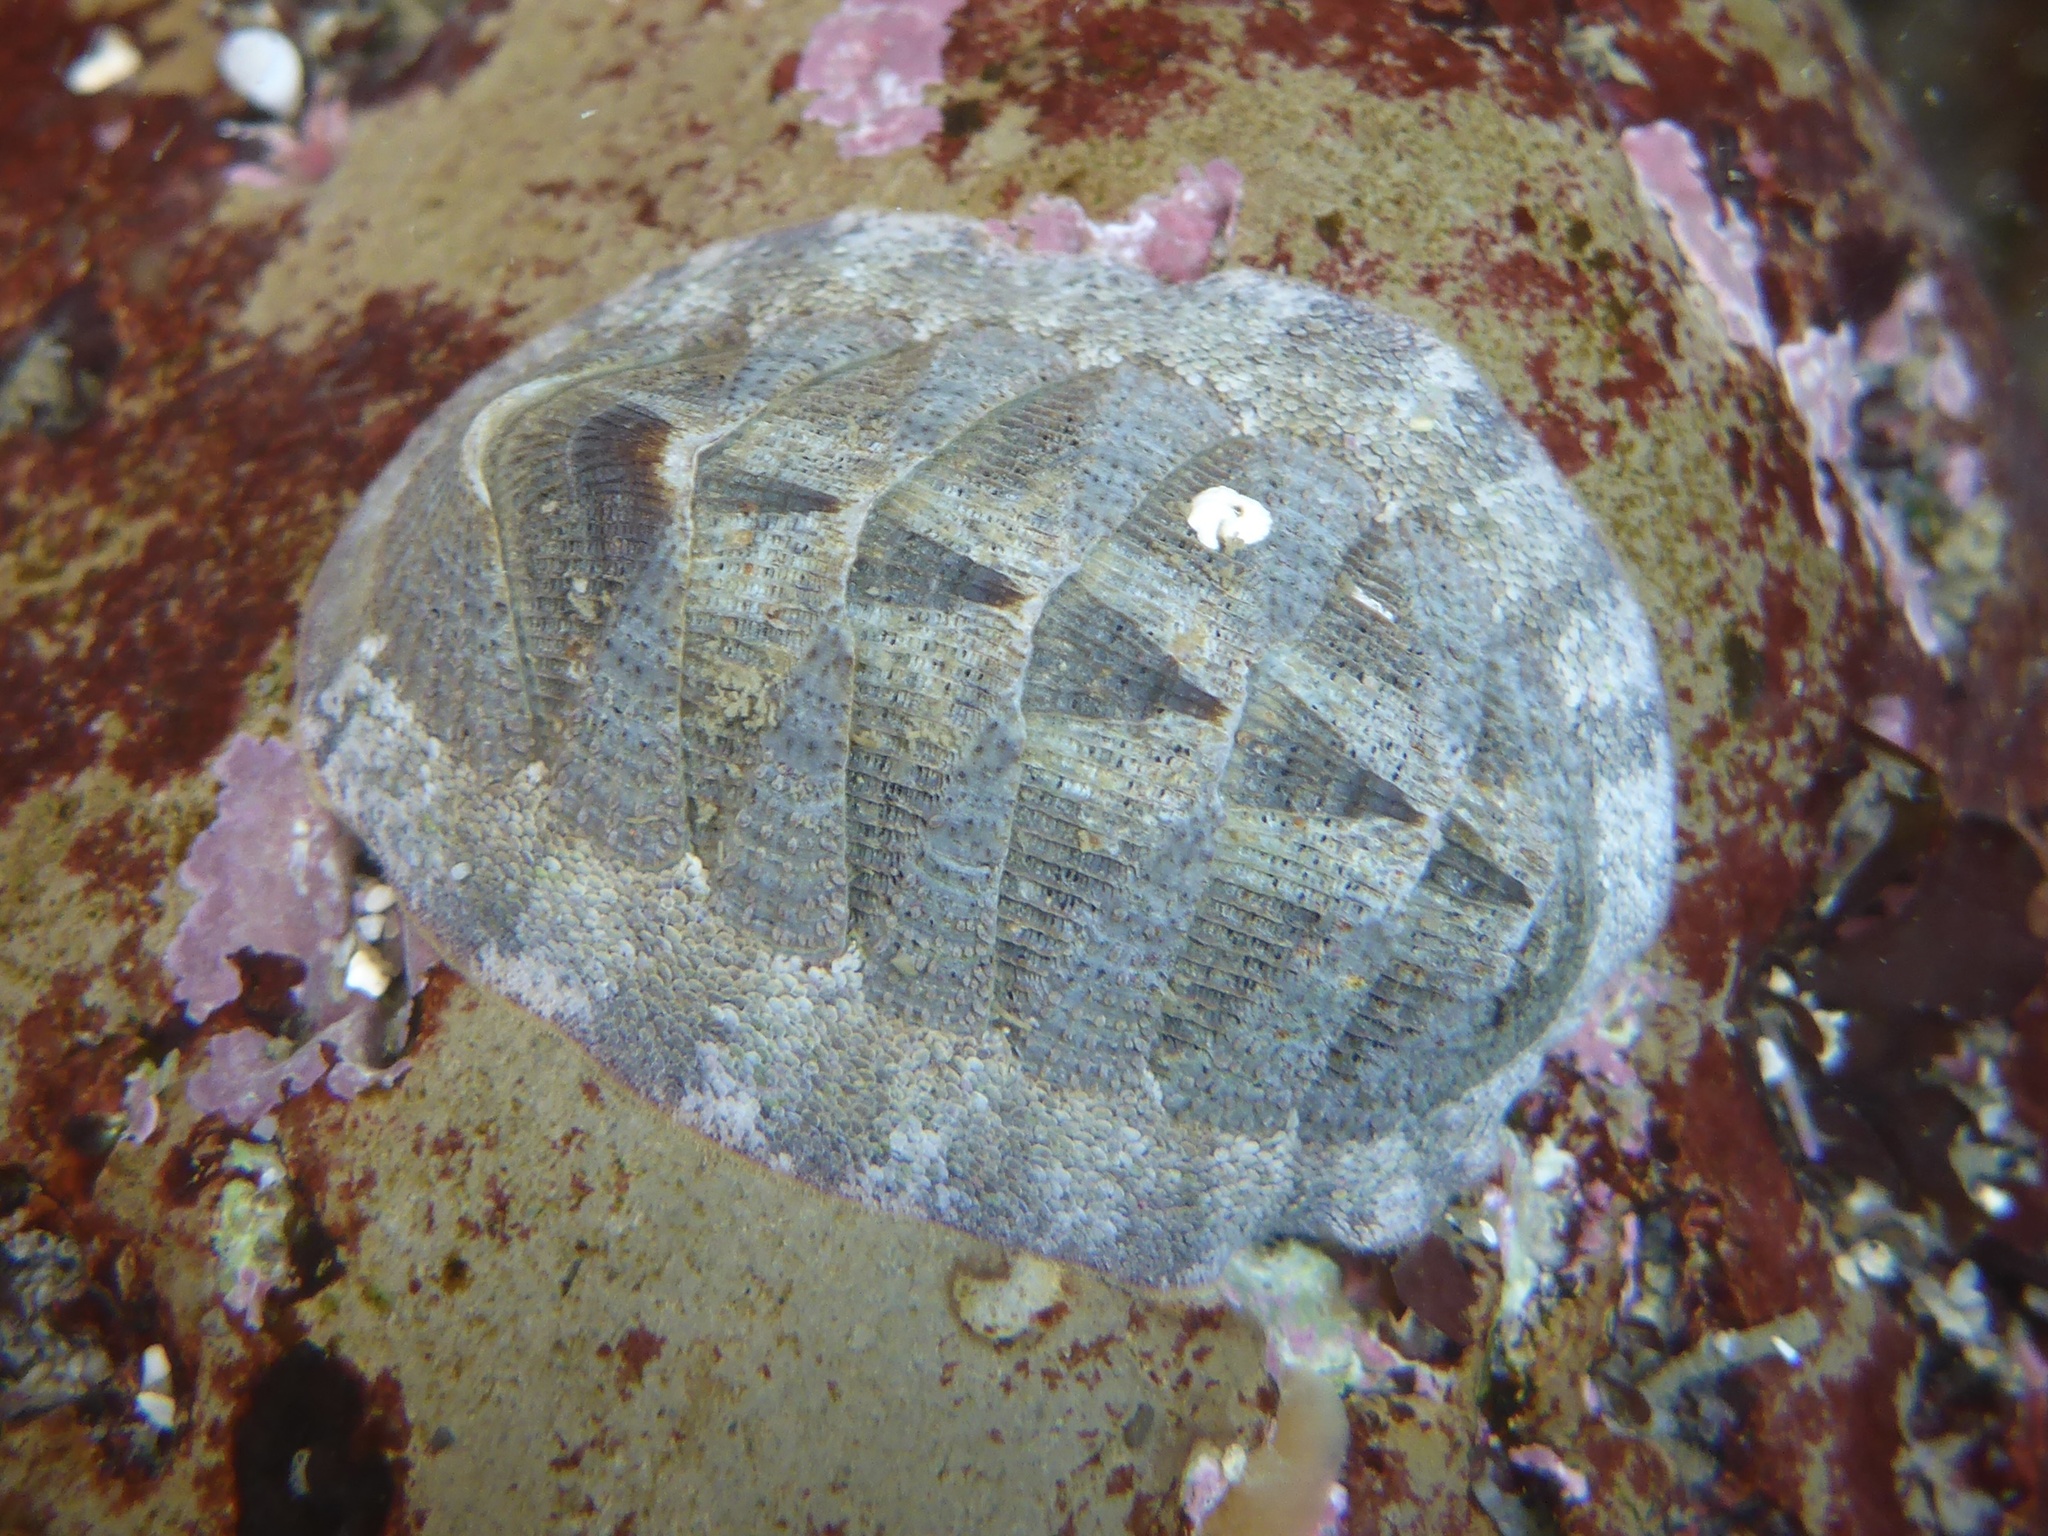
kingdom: Animalia
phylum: Mollusca
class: Polyplacophora
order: Chitonida
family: Ischnochitonidae
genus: Lepidozona
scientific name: Lepidozona cooperi
